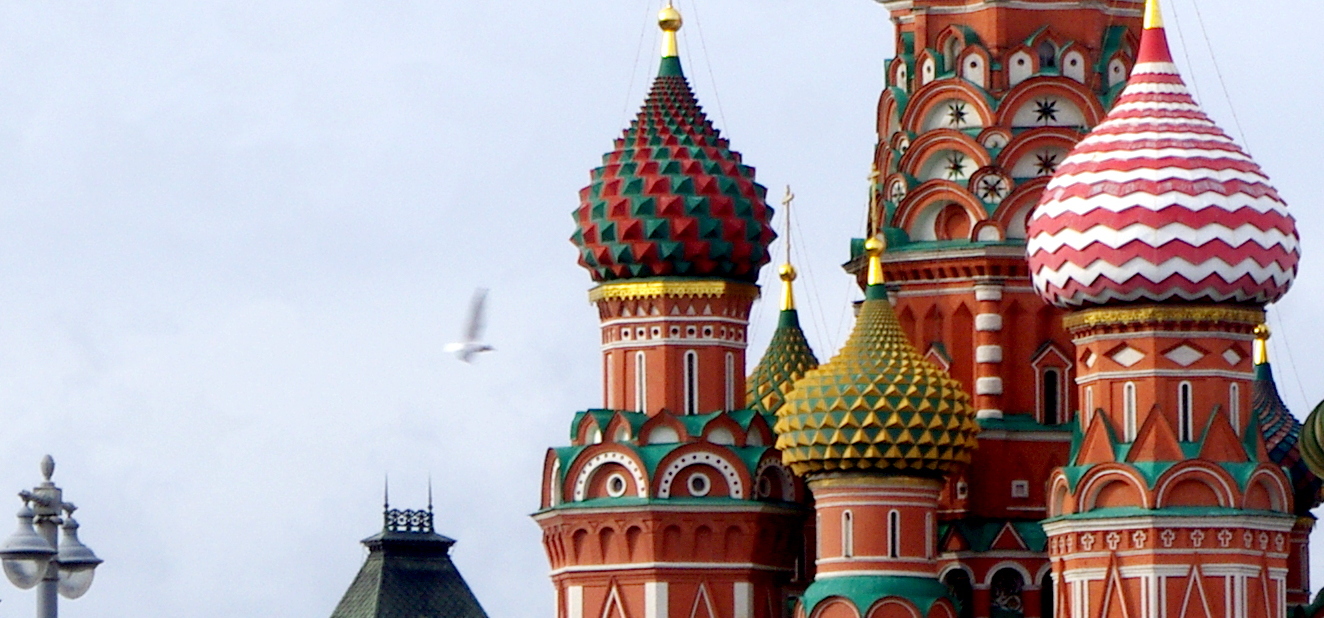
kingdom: Animalia
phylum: Chordata
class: Aves
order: Charadriiformes
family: Laridae
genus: Chroicocephalus
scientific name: Chroicocephalus ridibundus
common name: Black-headed gull
